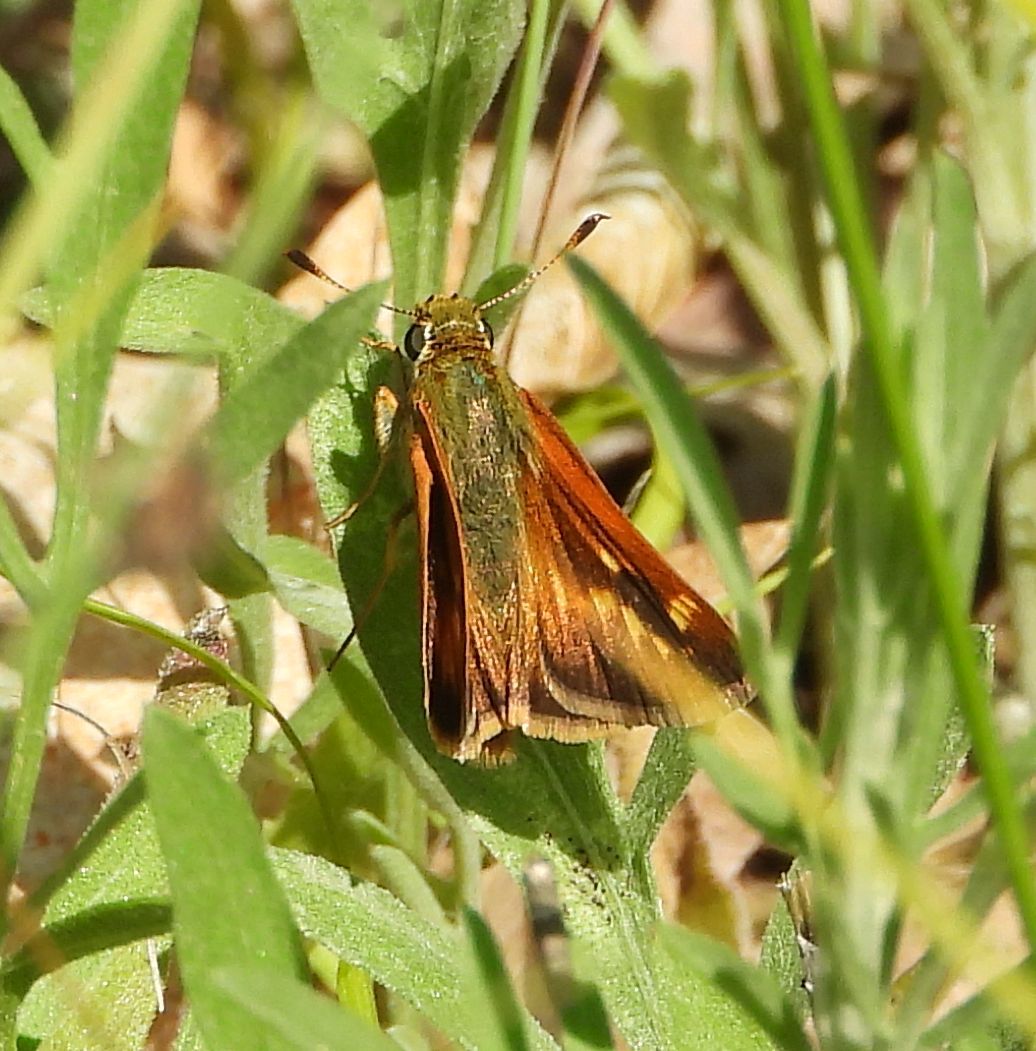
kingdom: Animalia
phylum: Arthropoda
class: Insecta
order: Lepidoptera
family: Hesperiidae
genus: Polites
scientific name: Polites mystic
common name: Long dash
